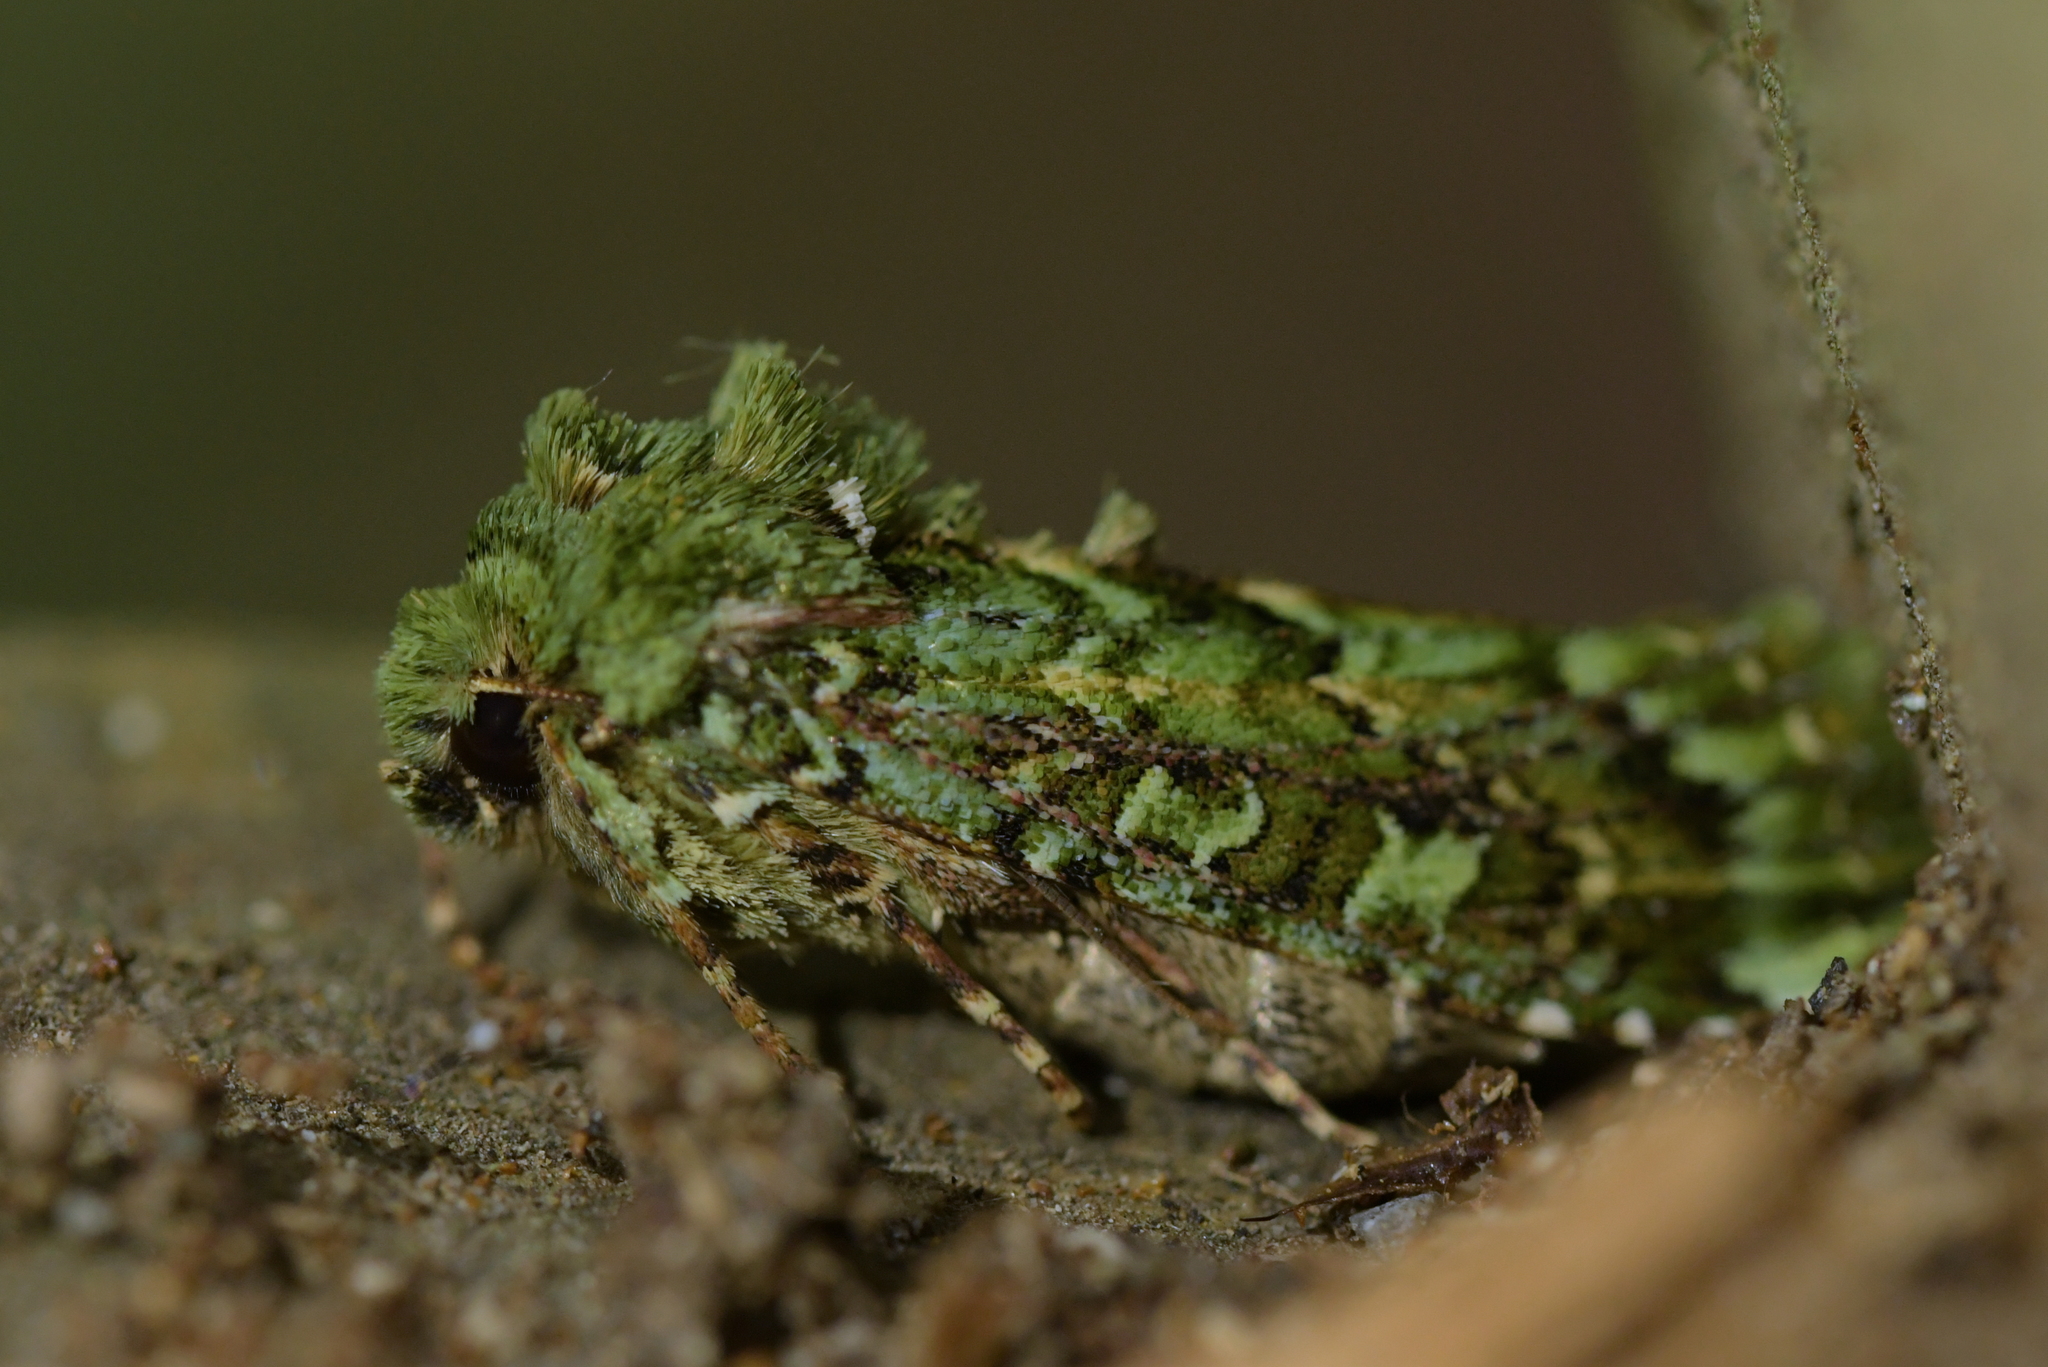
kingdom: Animalia
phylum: Arthropoda
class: Insecta
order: Lepidoptera
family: Noctuidae
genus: Feredayia
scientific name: Feredayia grammosa
